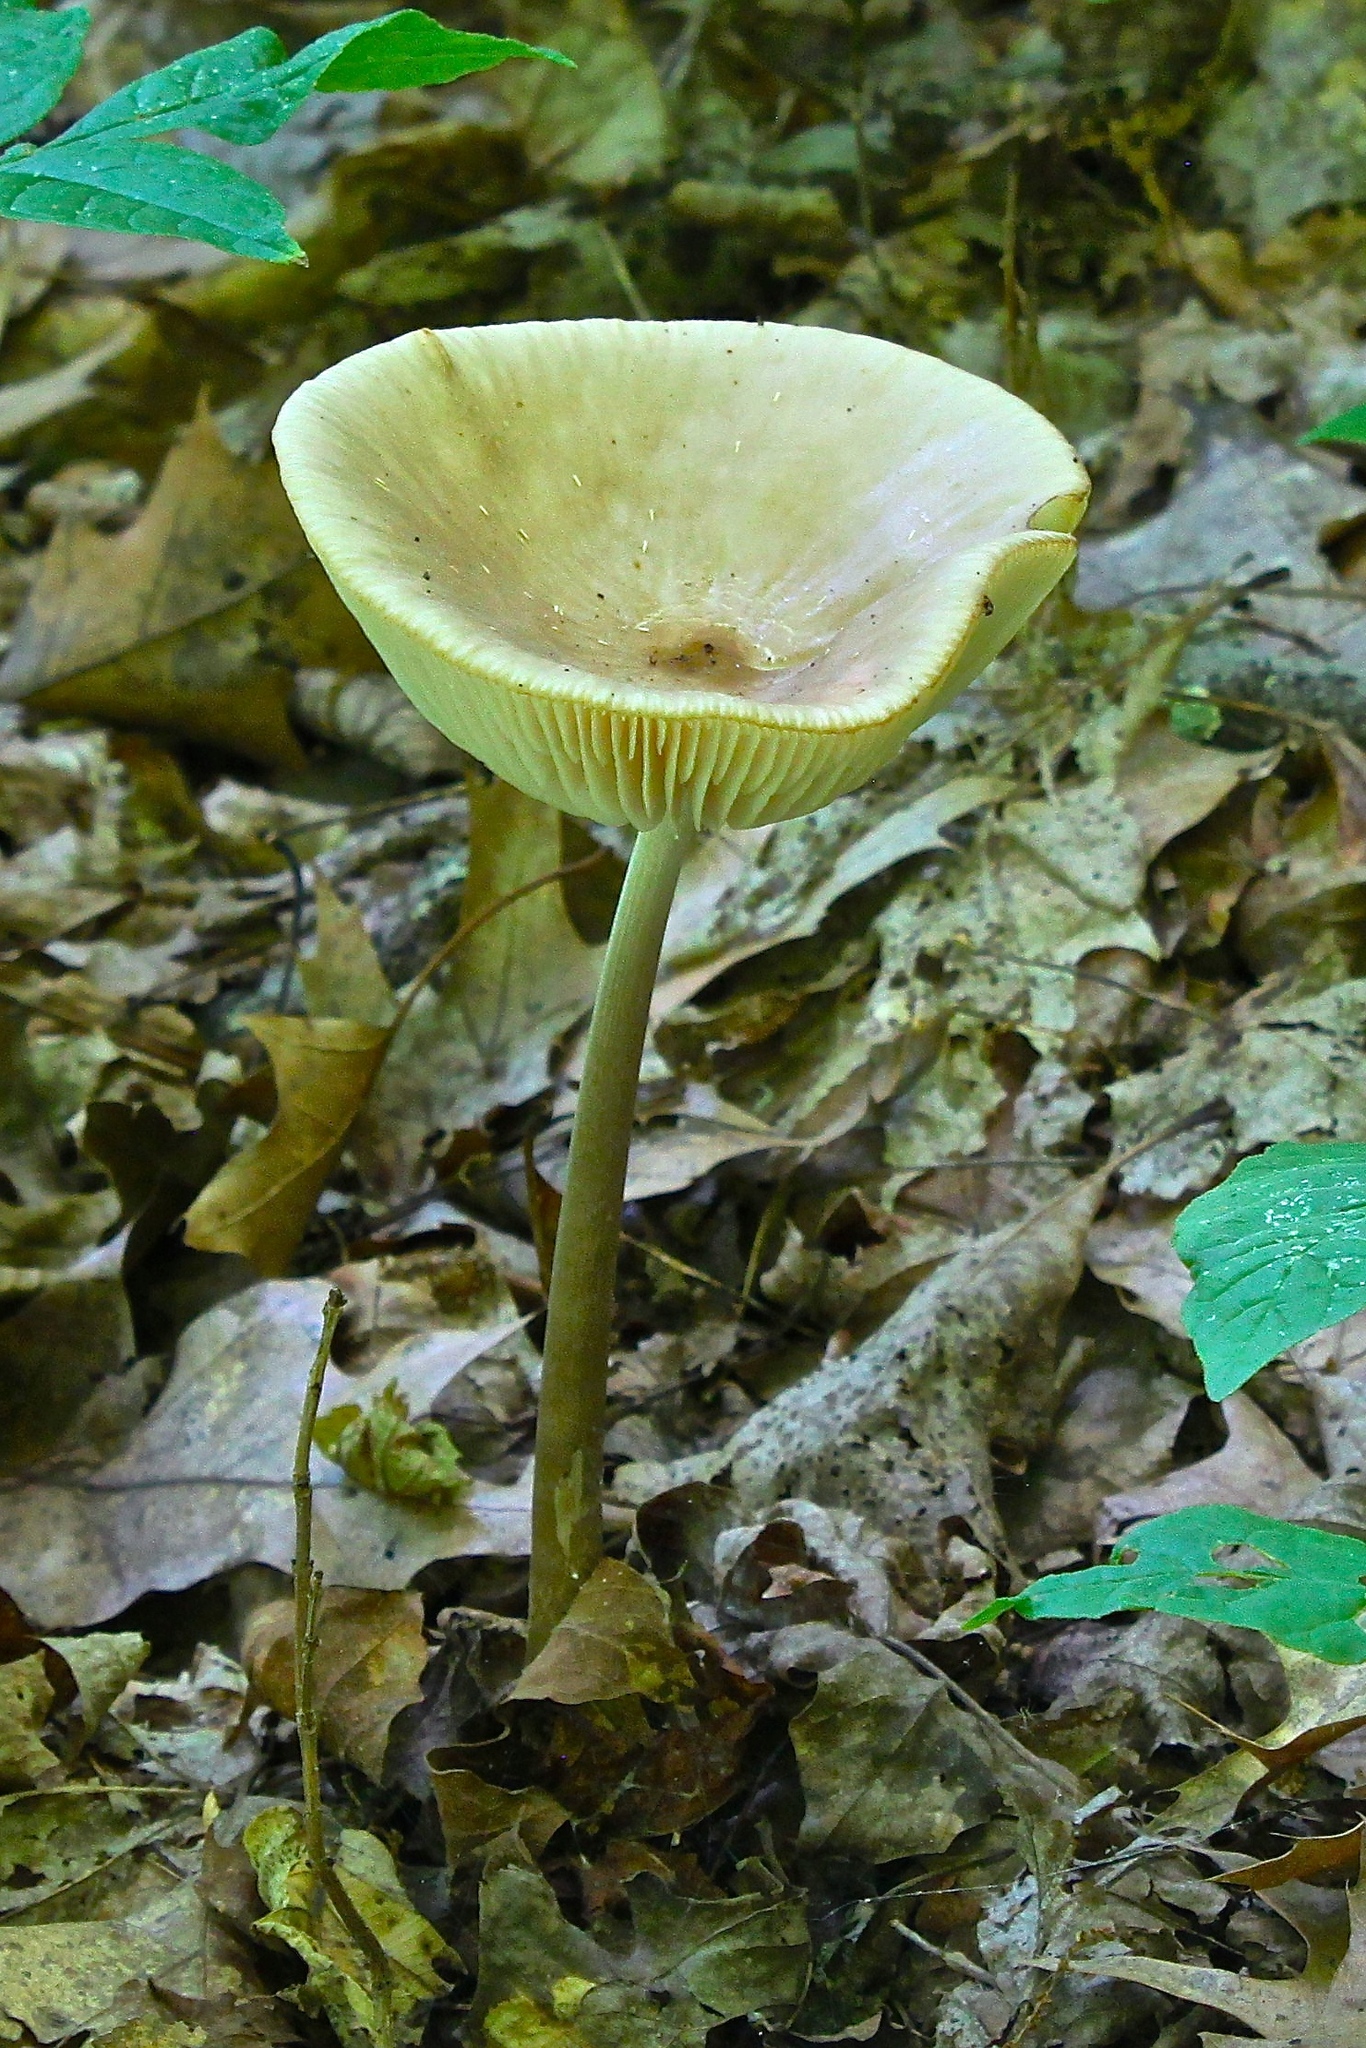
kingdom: Fungi
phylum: Basidiomycota
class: Agaricomycetes
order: Agaricales
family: Physalacriaceae
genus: Hymenopellis
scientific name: Hymenopellis furfuracea
